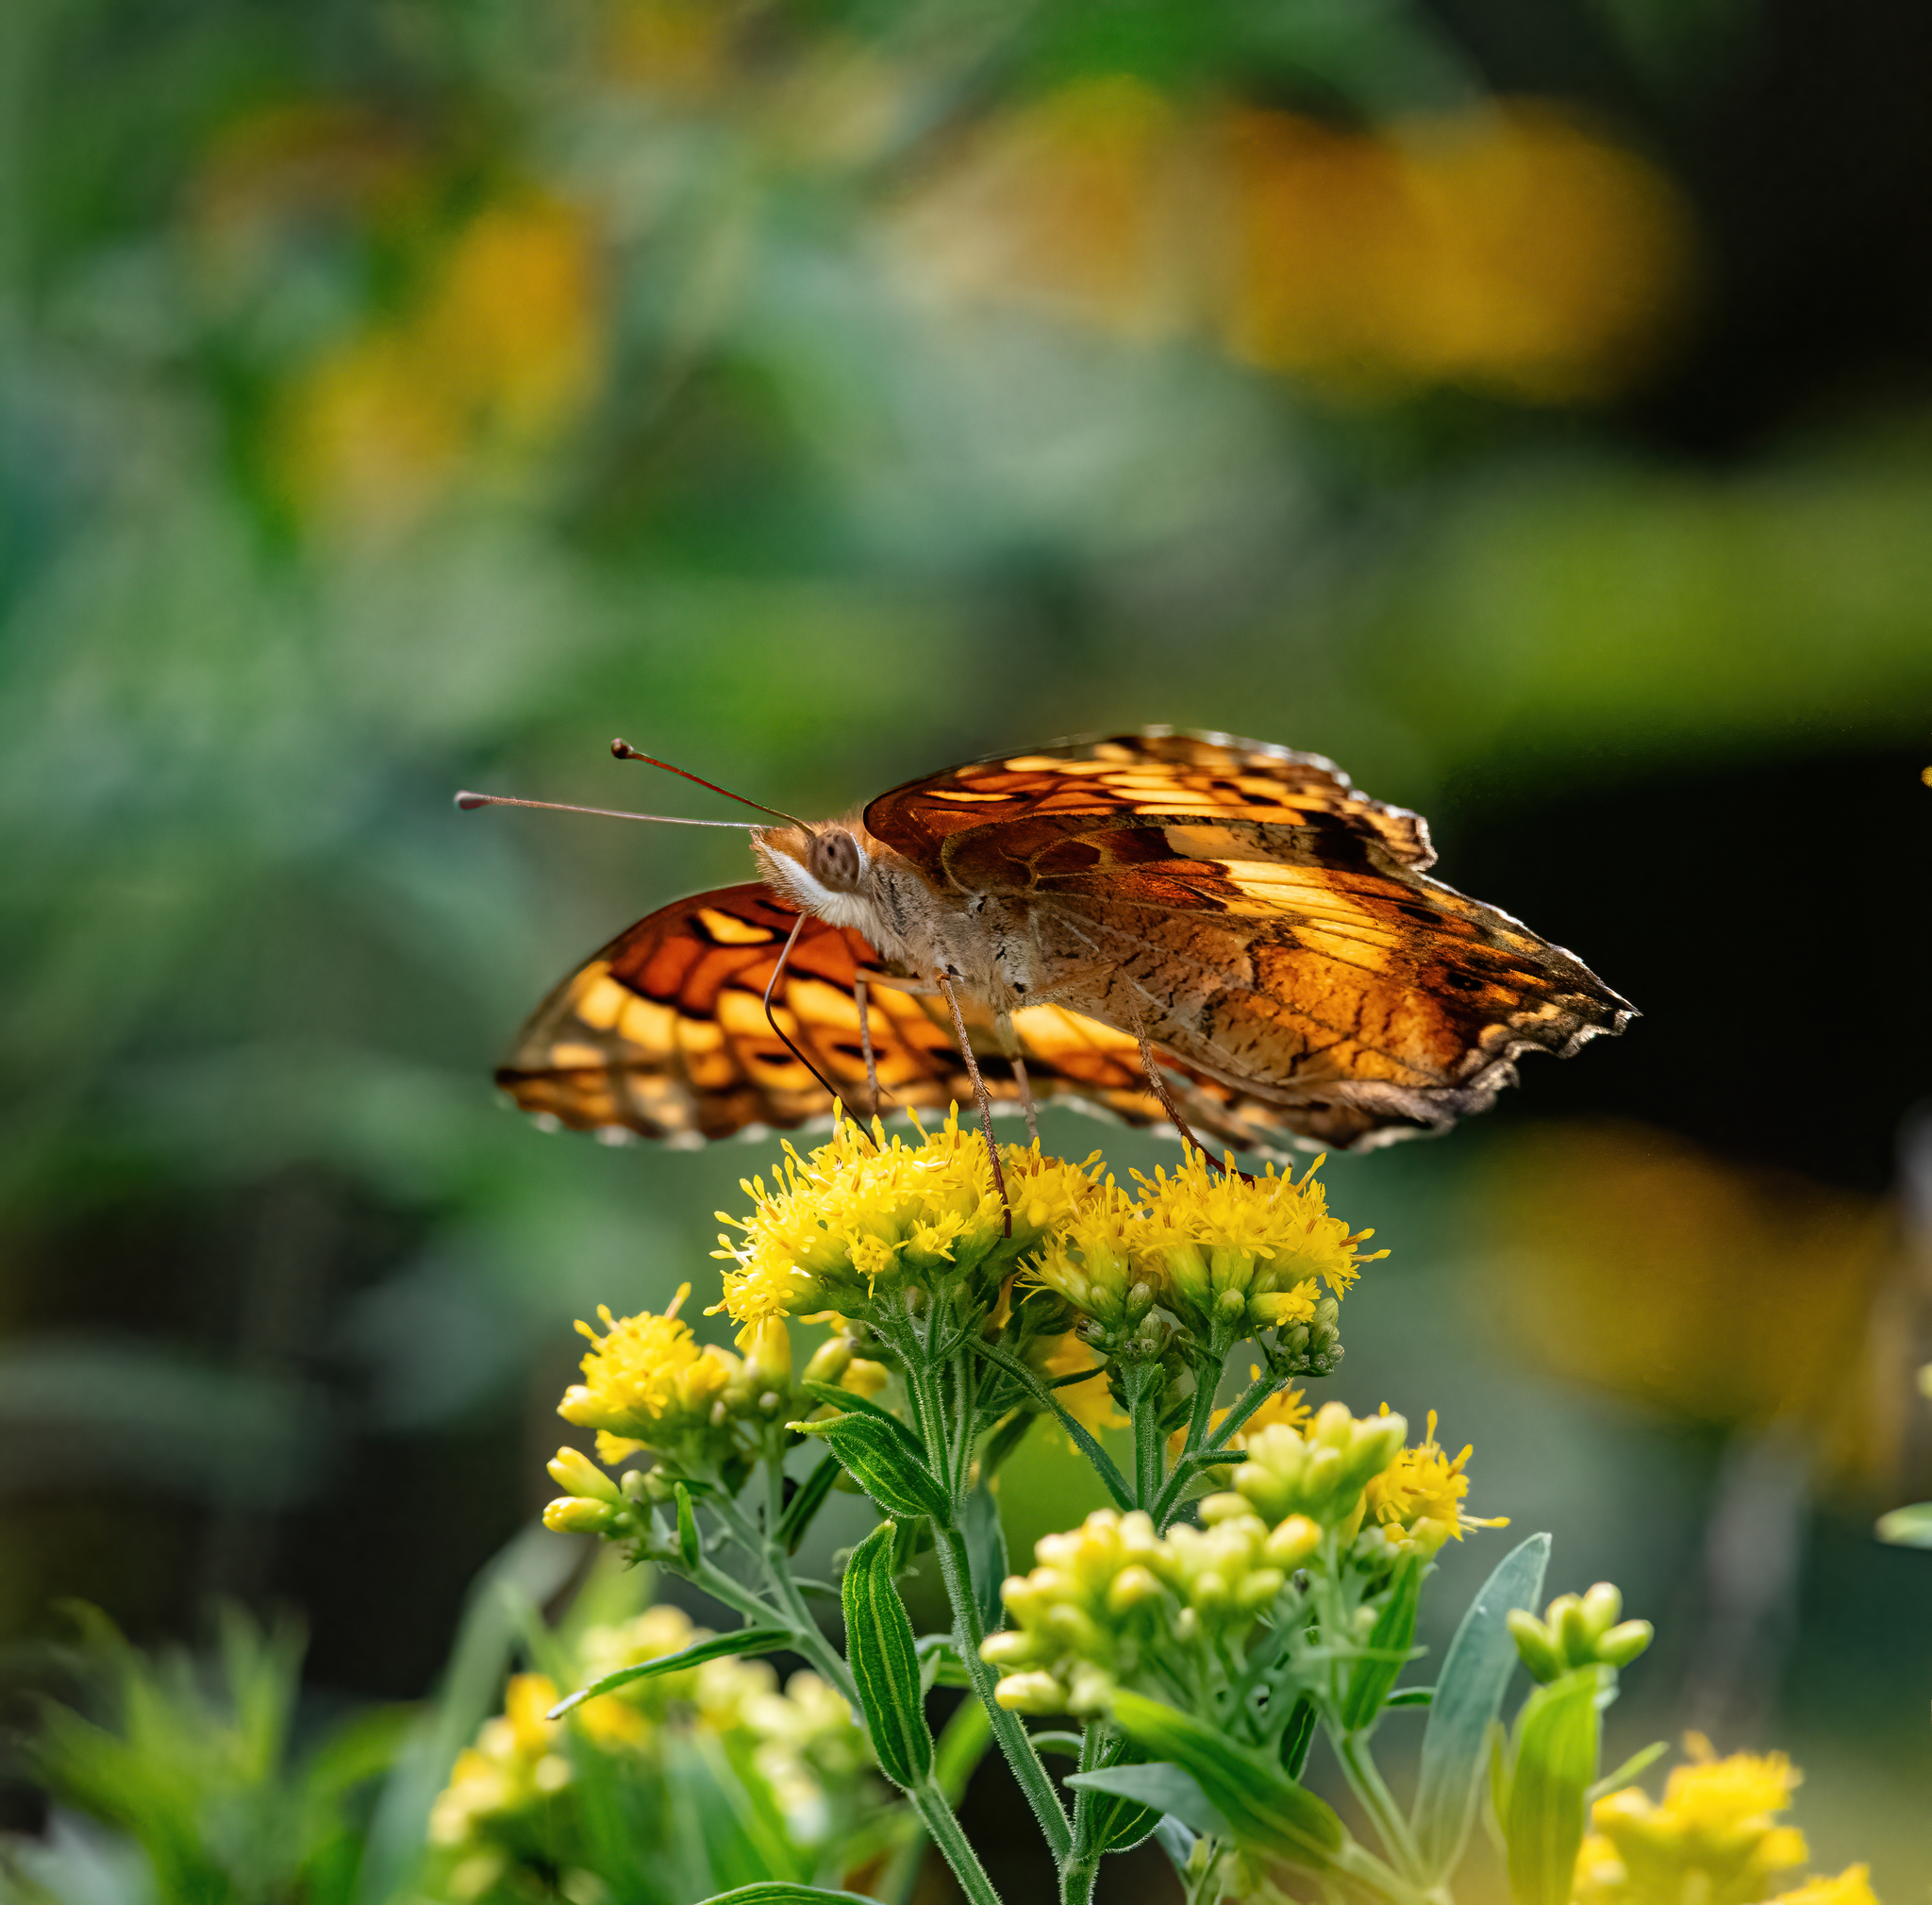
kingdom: Animalia
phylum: Arthropoda
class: Insecta
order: Lepidoptera
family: Nymphalidae
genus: Euptoieta
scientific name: Euptoieta claudia
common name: Variegated fritillary
